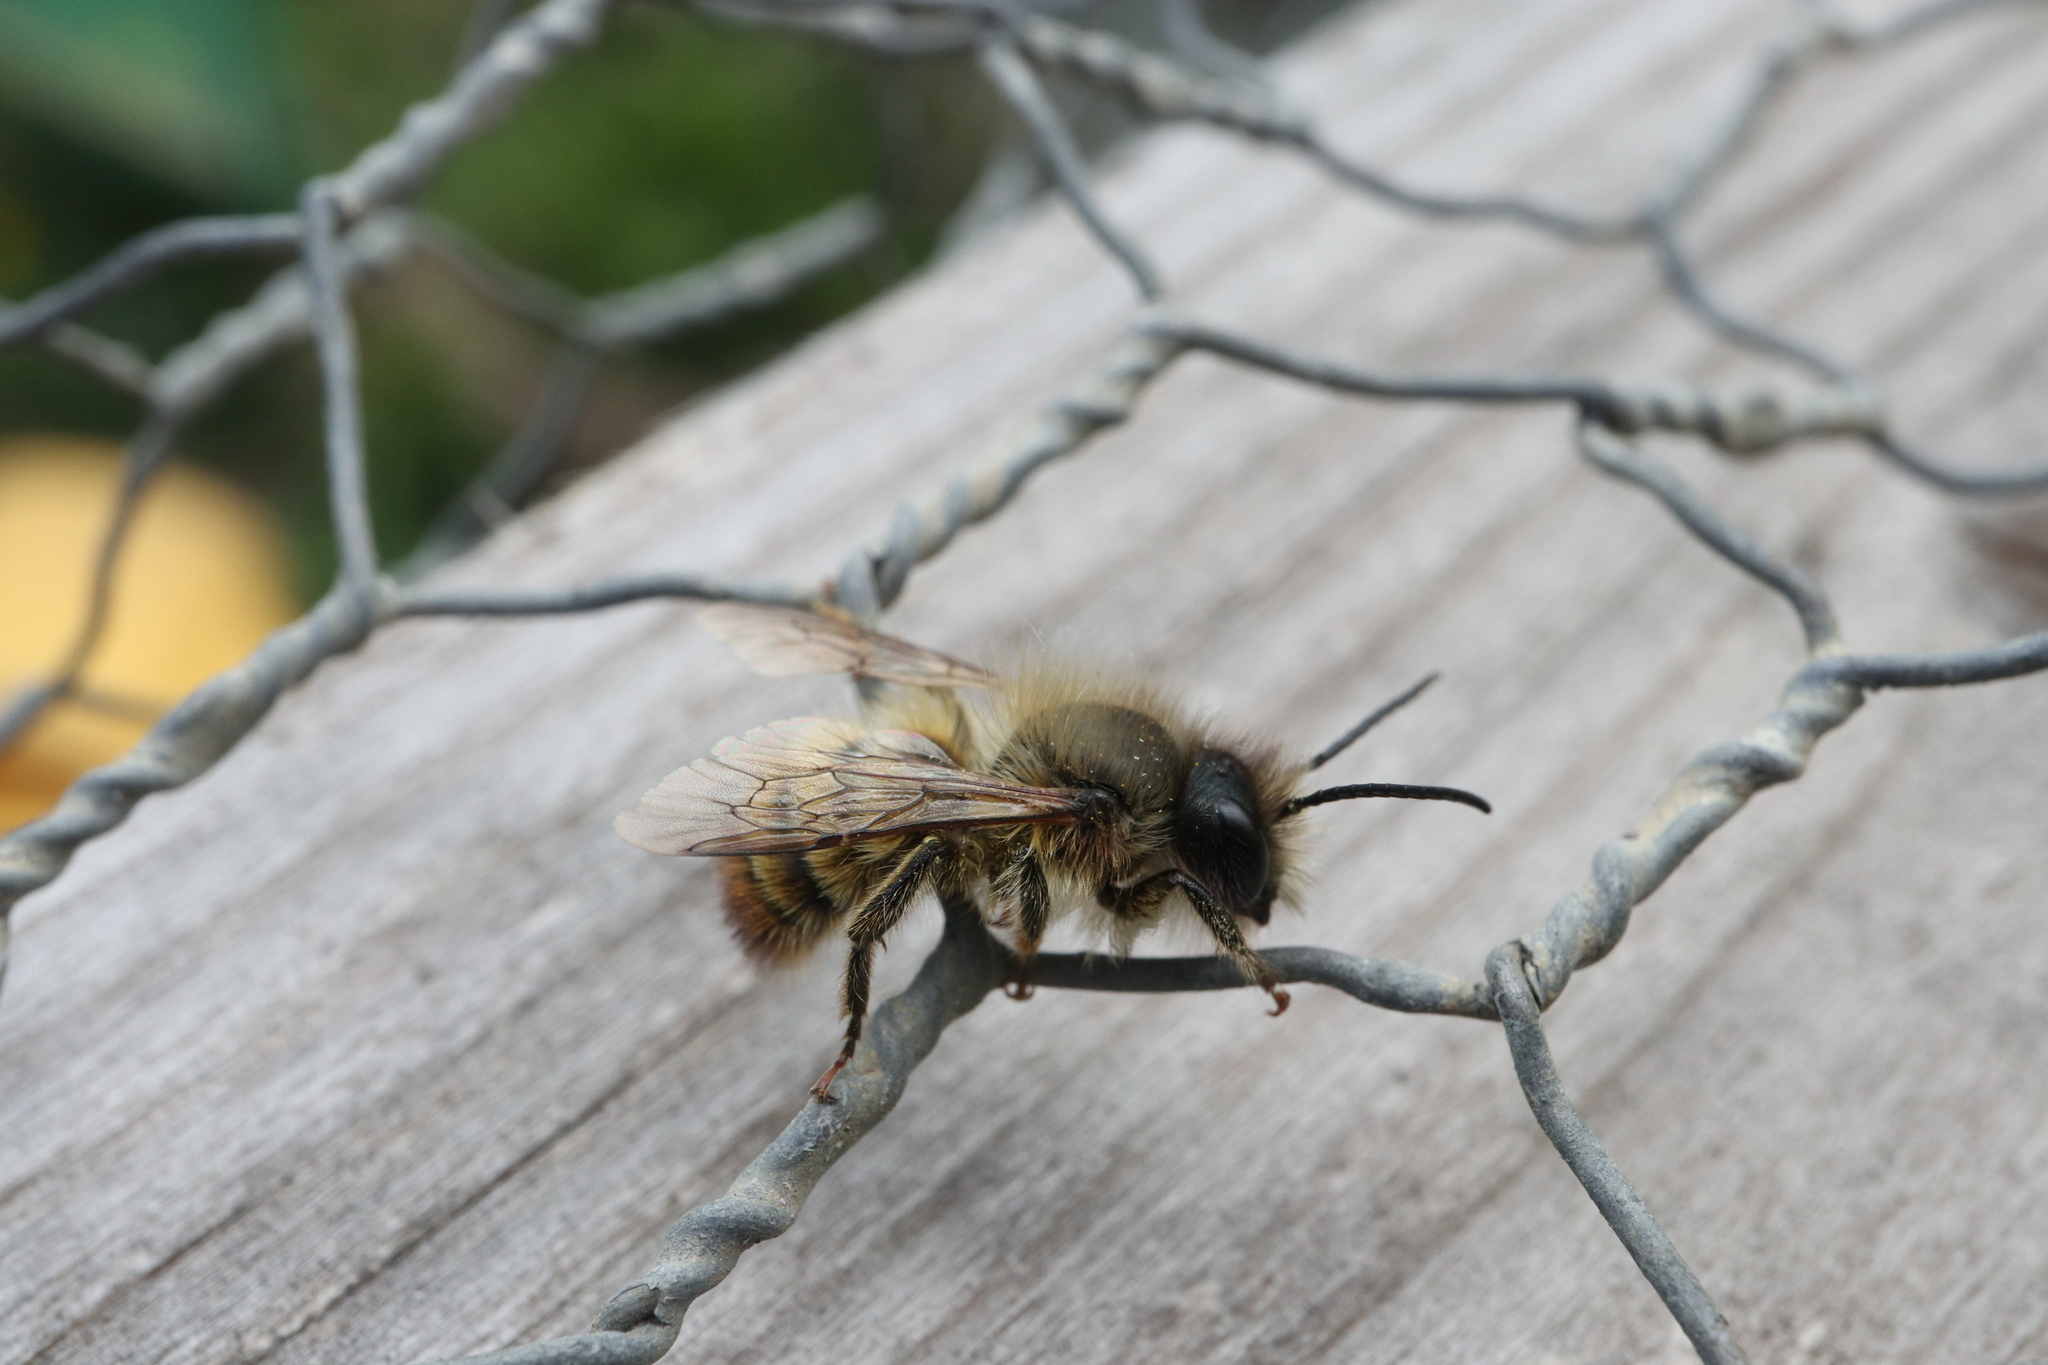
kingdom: Animalia
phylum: Arthropoda
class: Insecta
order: Hymenoptera
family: Megachilidae
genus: Osmia
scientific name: Osmia bicornis
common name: Red mason bee
